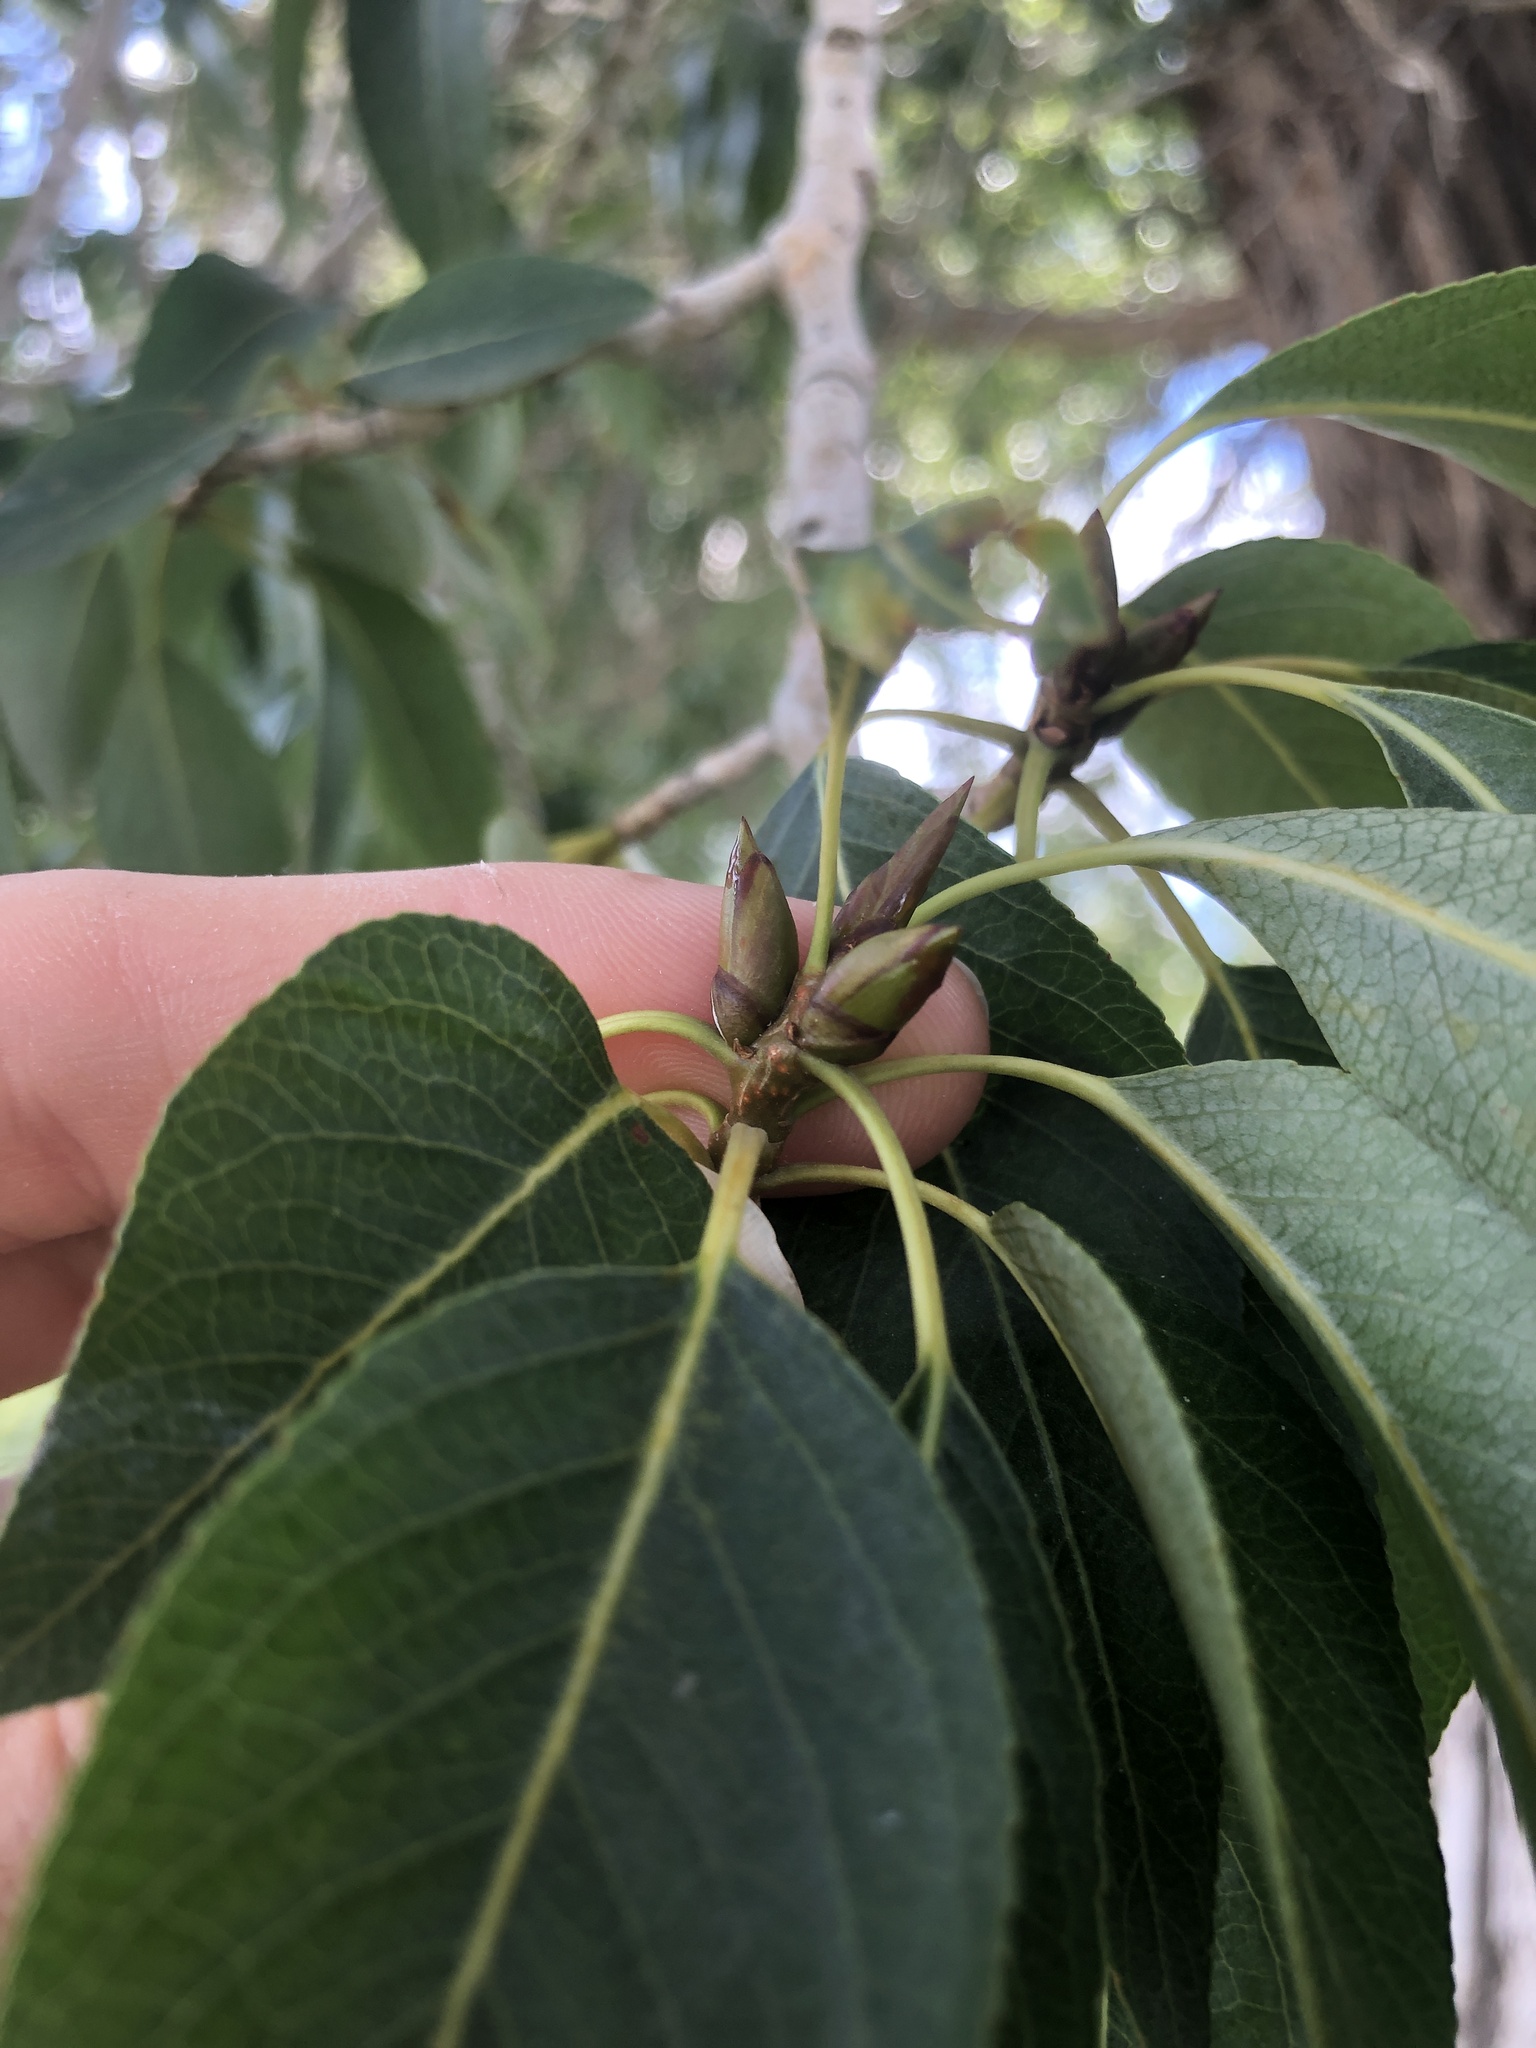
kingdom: Plantae
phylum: Tracheophyta
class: Magnoliopsida
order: Malpighiales
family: Salicaceae
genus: Populus
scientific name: Populus angustifolia
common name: Willow cottonwood
